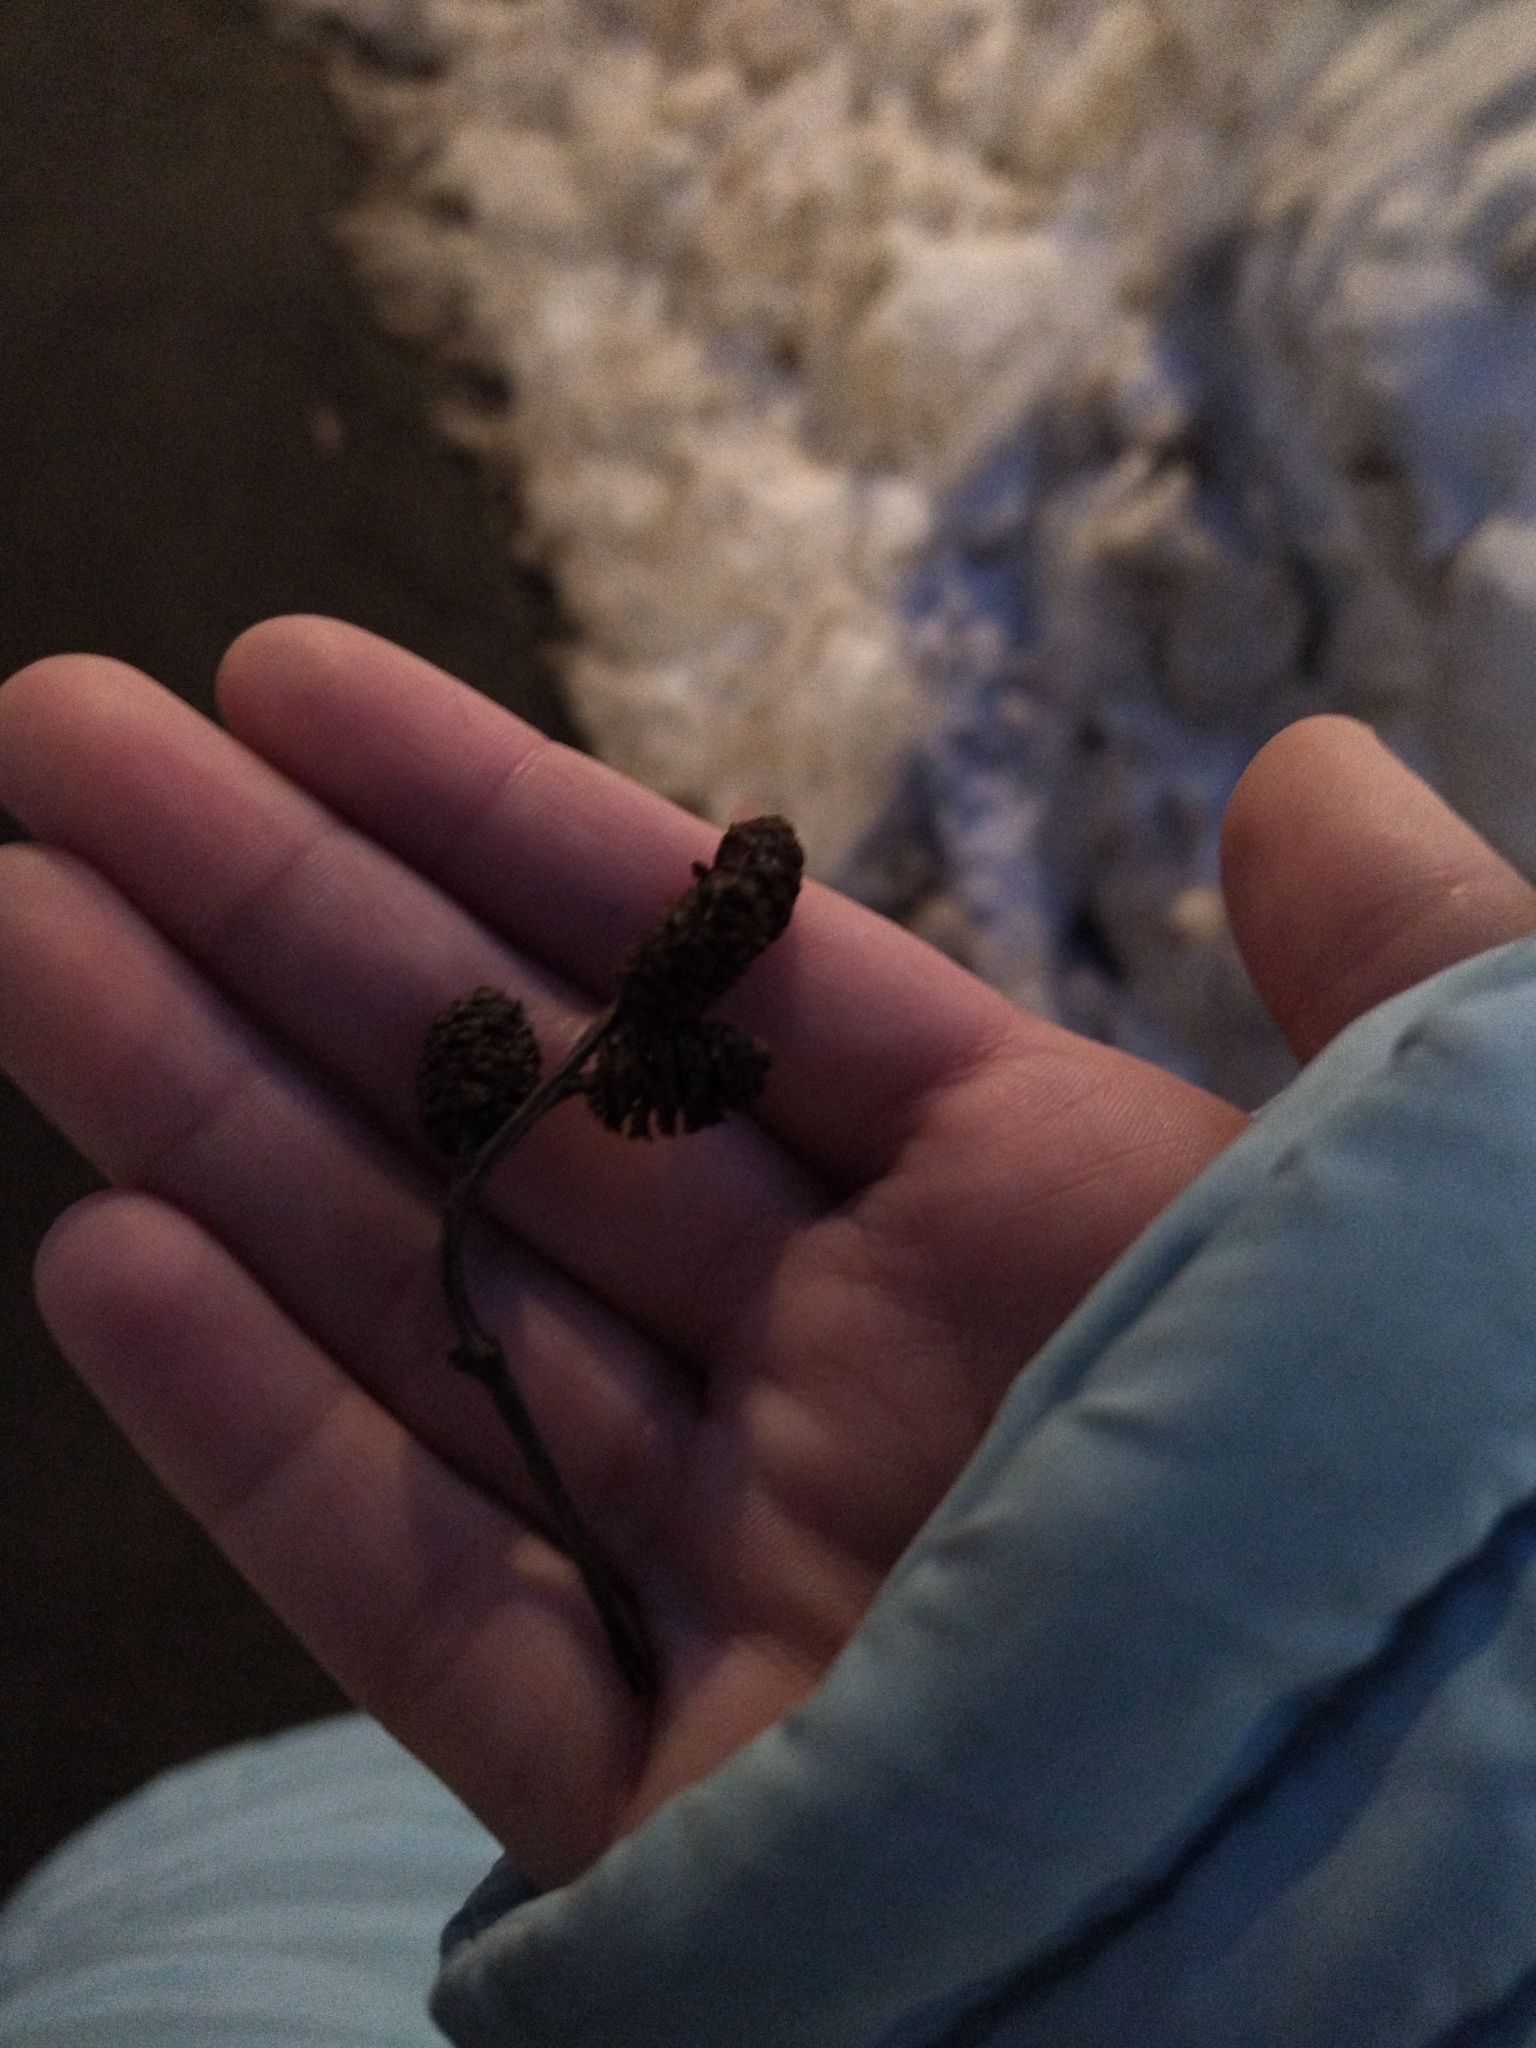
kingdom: Plantae
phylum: Tracheophyta
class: Magnoliopsida
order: Fagales
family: Betulaceae
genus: Alnus
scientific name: Alnus incana
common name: Grey alder
